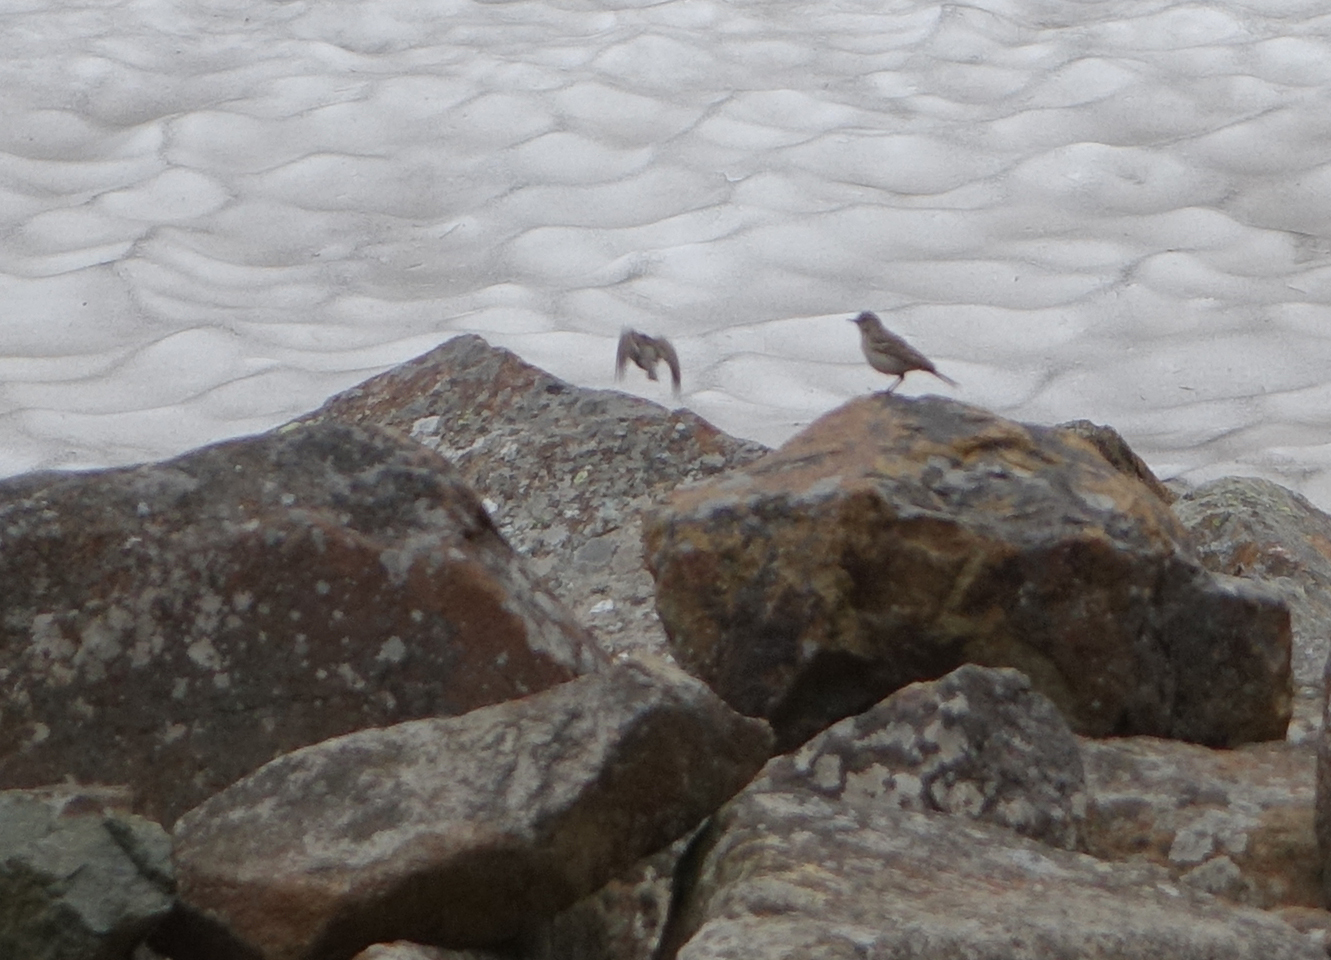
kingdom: Animalia
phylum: Chordata
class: Aves
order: Passeriformes
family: Motacillidae
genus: Anthus
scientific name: Anthus spinoletta
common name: Water pipit
